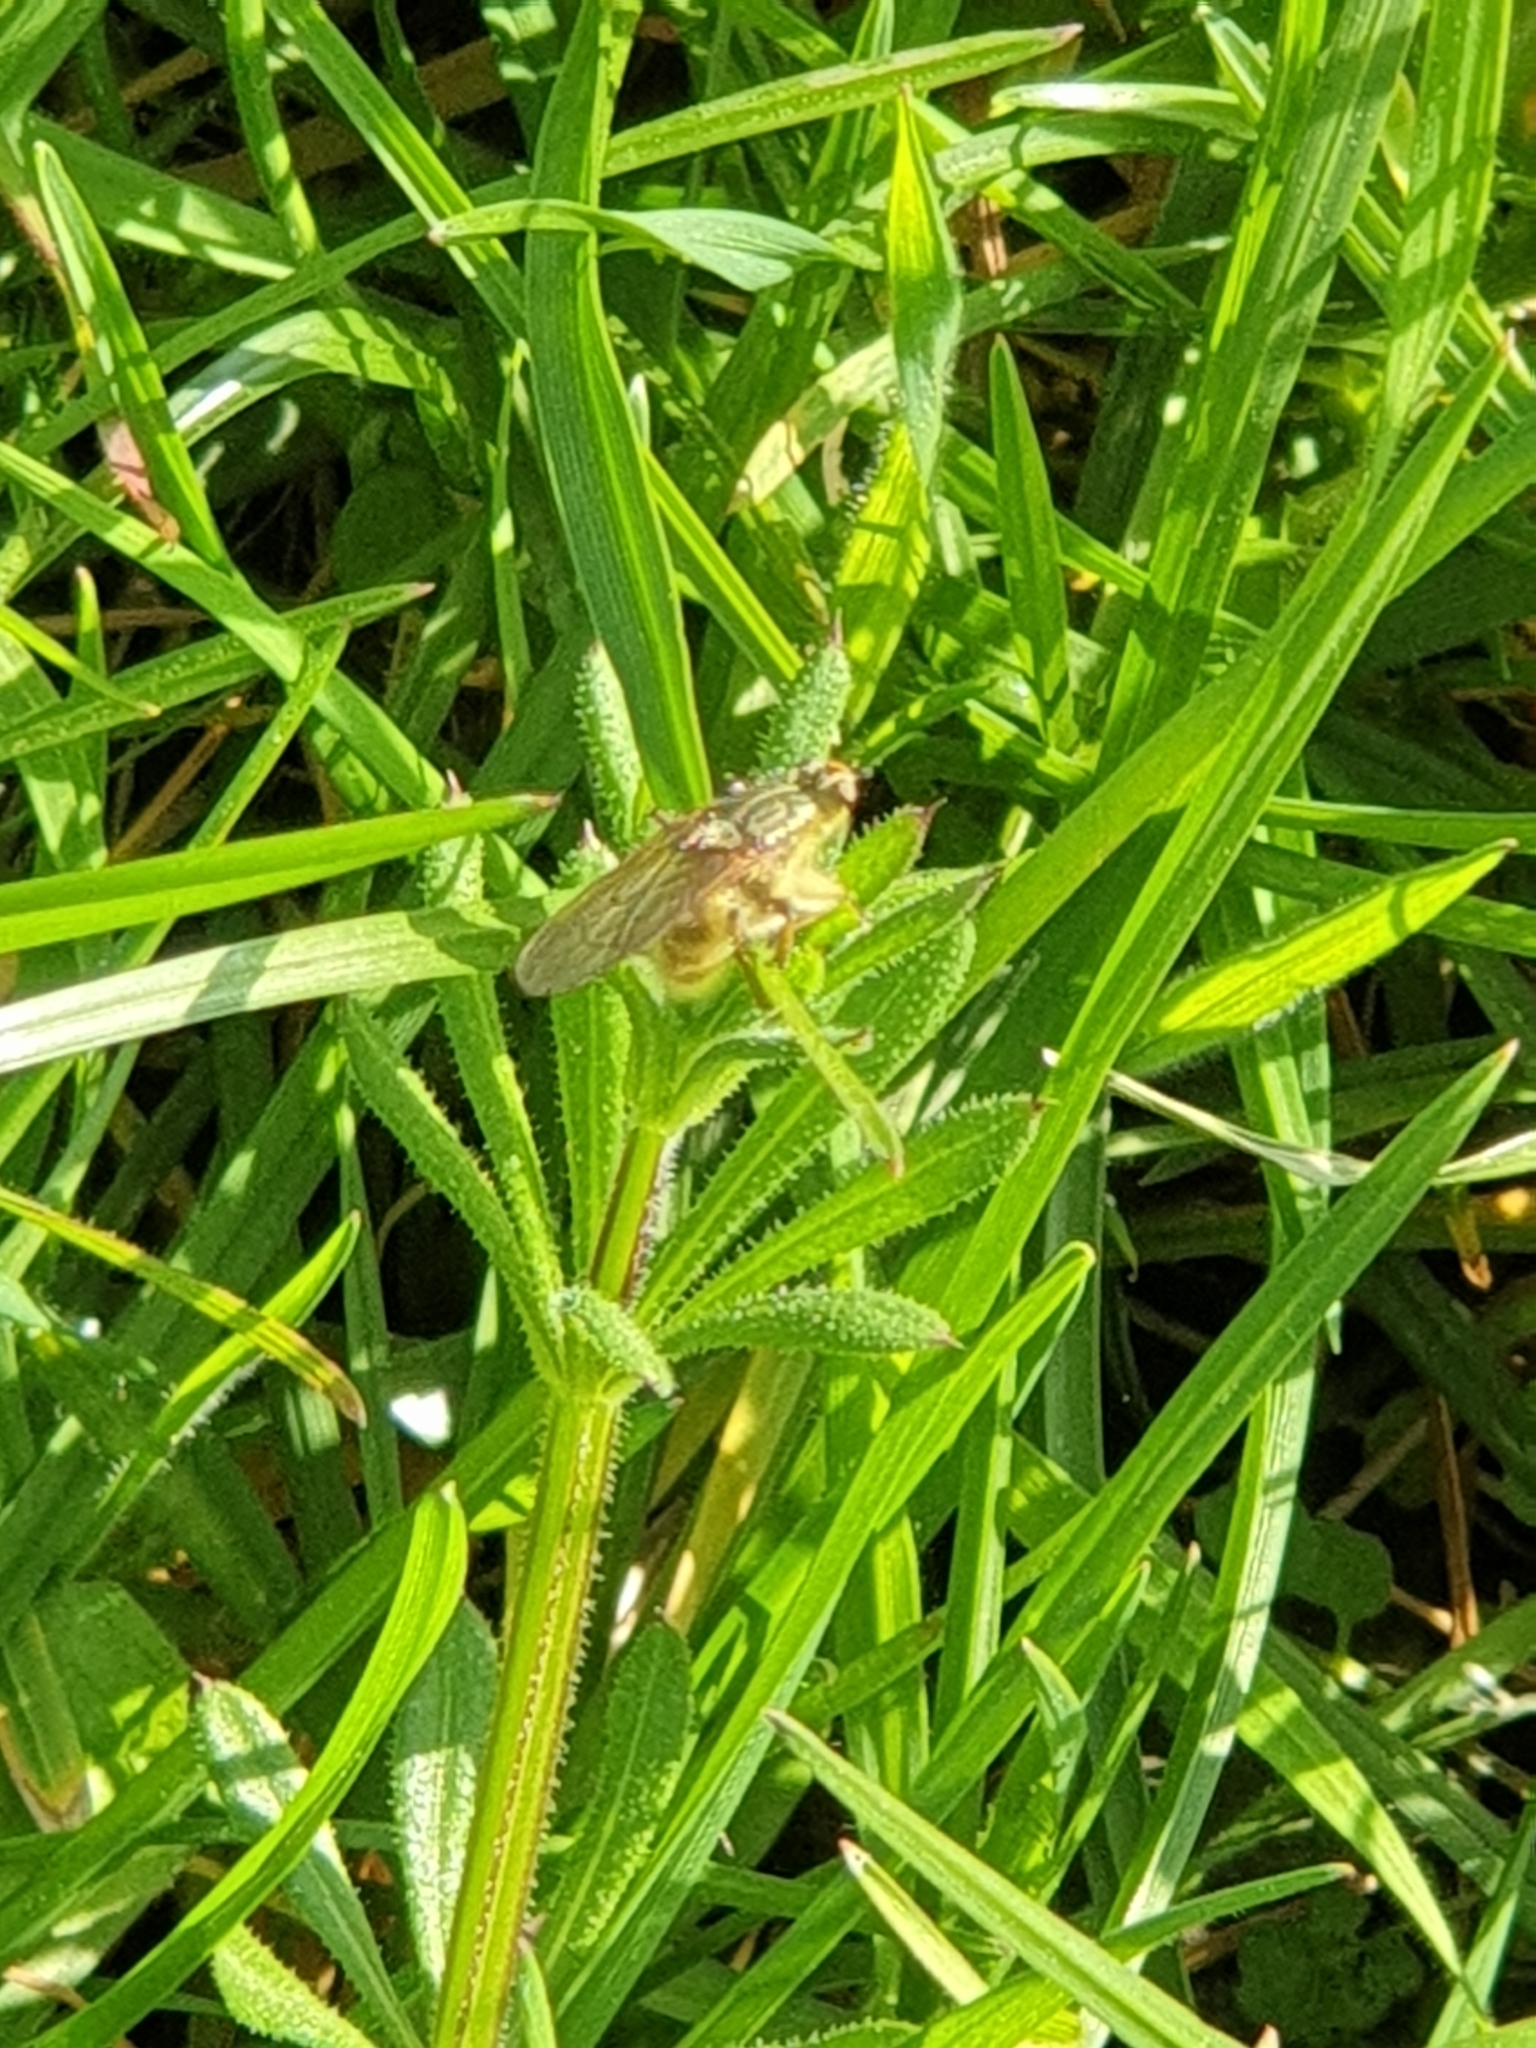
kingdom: Animalia
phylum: Arthropoda
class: Insecta
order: Diptera
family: Scathophagidae
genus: Scathophaga
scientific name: Scathophaga stercoraria
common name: Yellow dung fly
